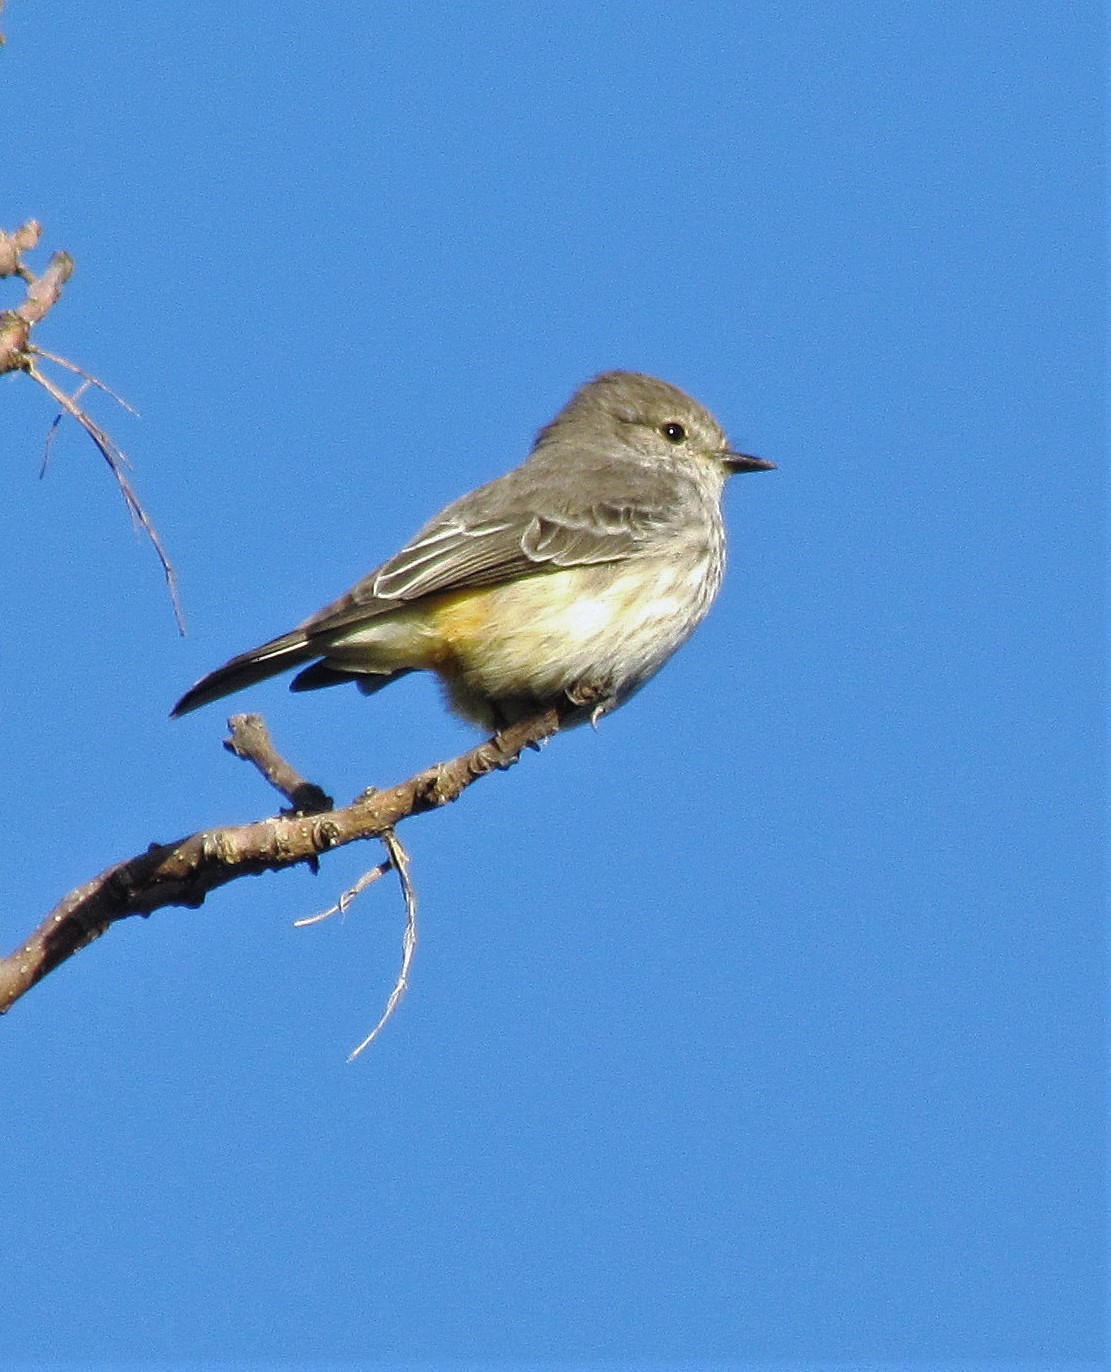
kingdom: Animalia
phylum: Chordata
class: Aves
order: Passeriformes
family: Tyrannidae
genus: Pyrocephalus
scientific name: Pyrocephalus rubinus
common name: Vermilion flycatcher
